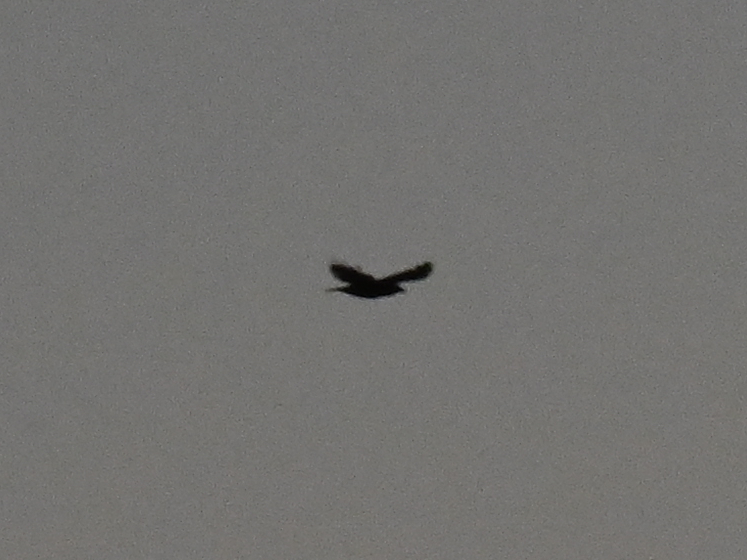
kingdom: Animalia
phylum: Chordata
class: Aves
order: Passeriformes
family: Corvidae
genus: Corvus
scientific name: Corvus corone
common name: Carrion crow
